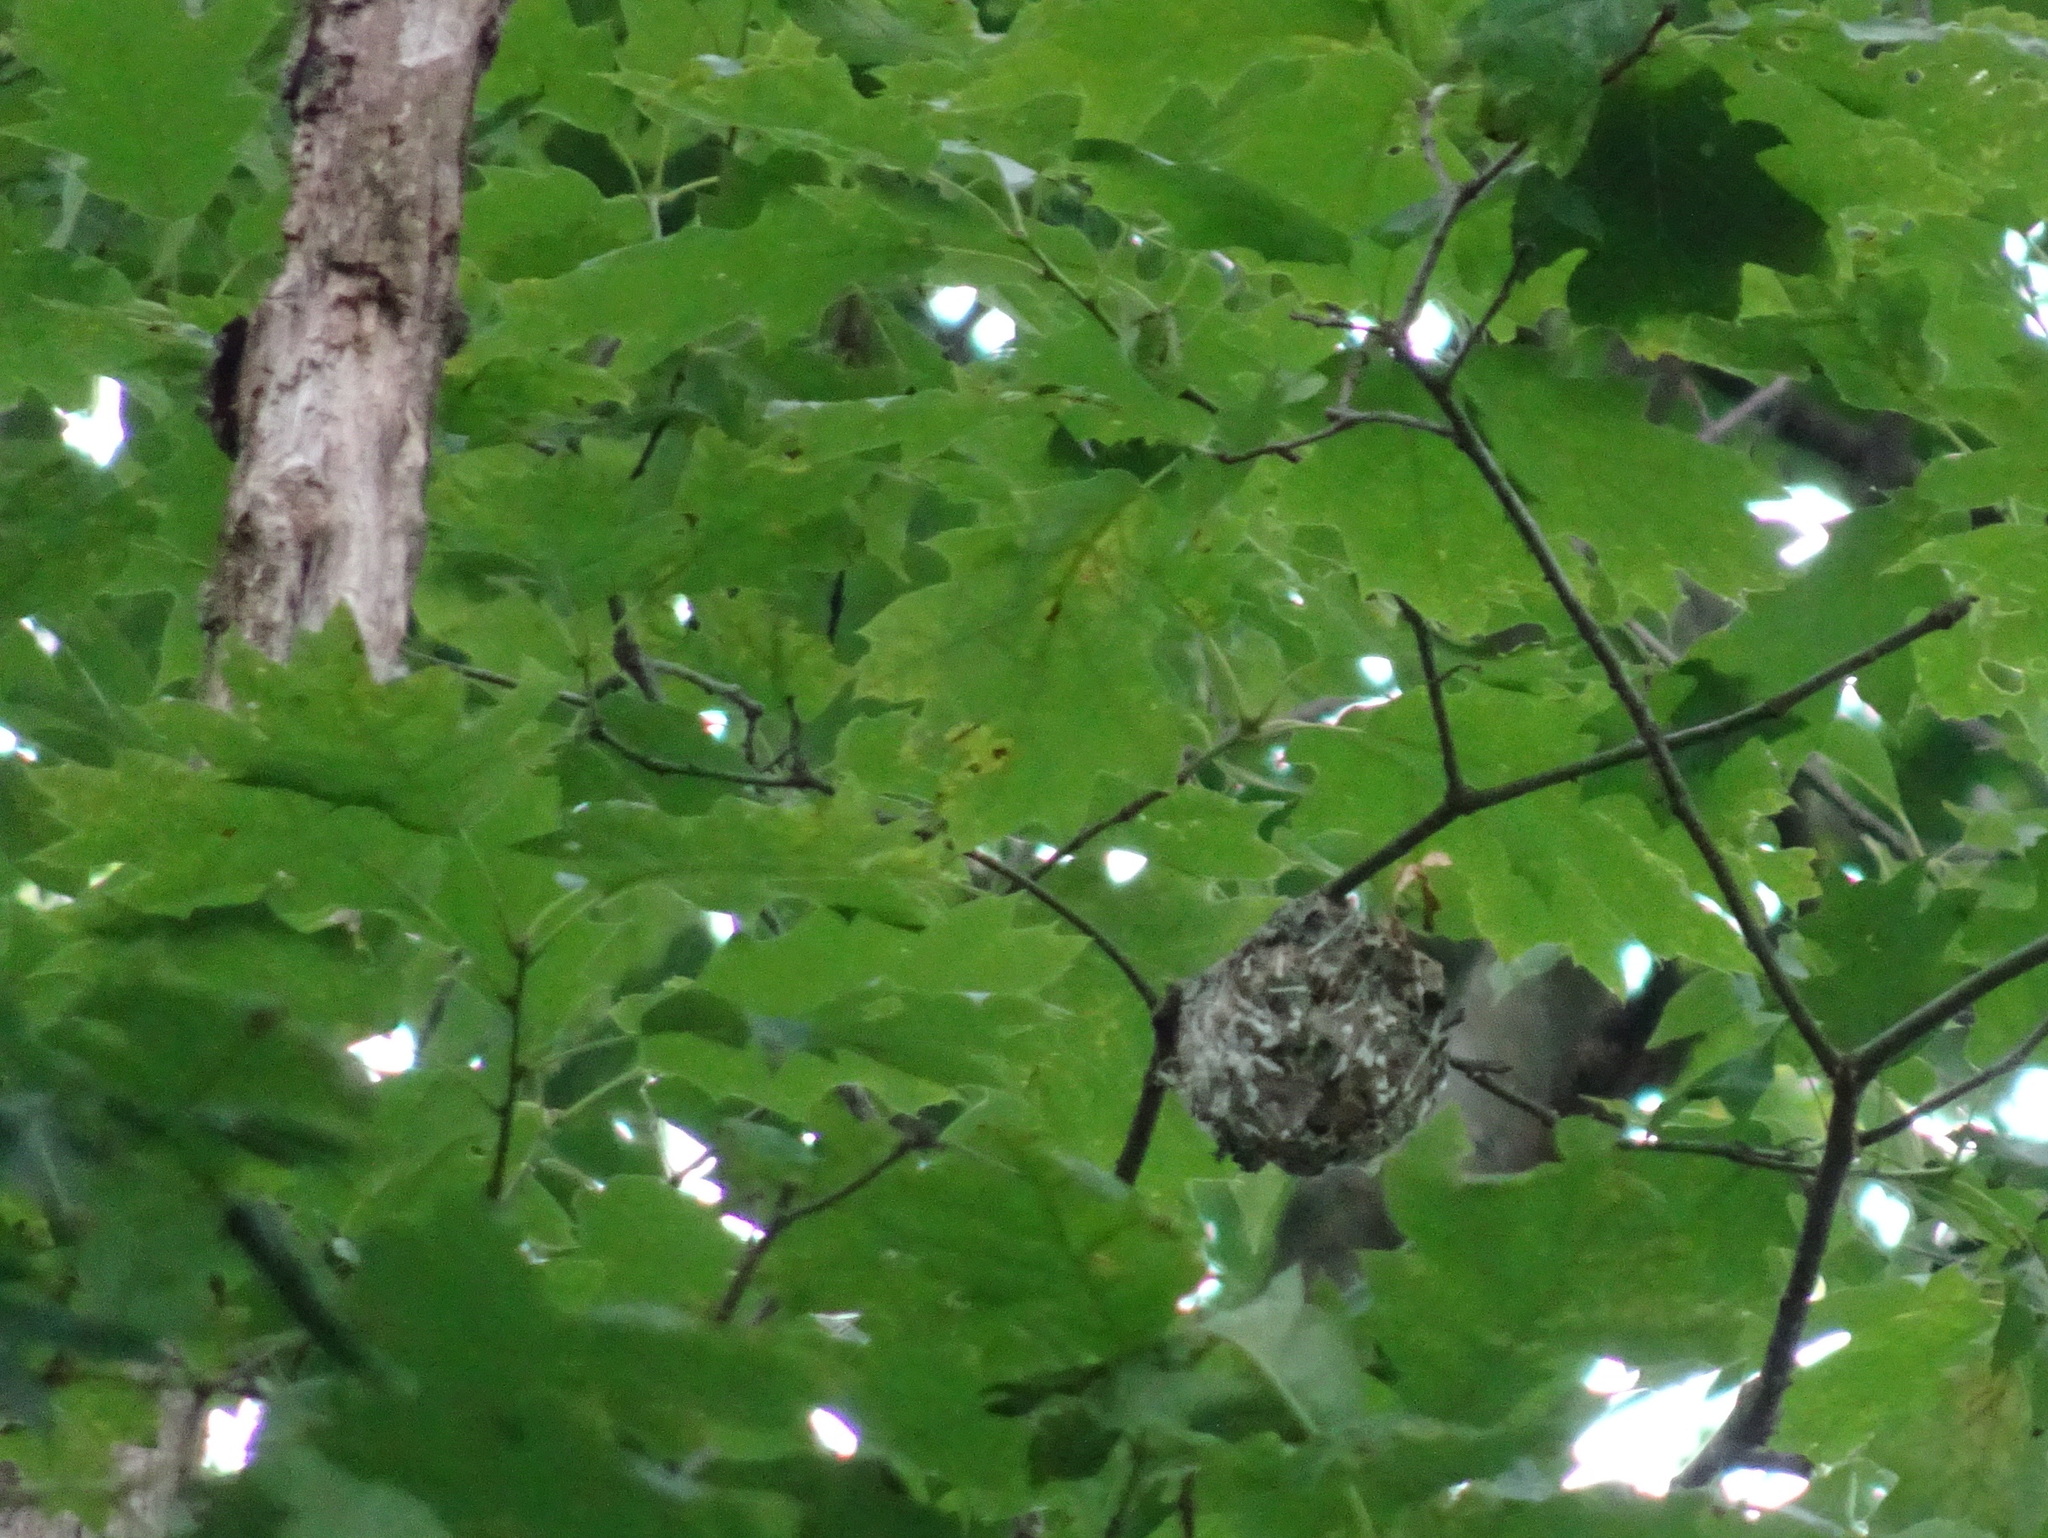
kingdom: Animalia
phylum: Chordata
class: Aves
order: Passeriformes
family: Vireonidae
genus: Vireo
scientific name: Vireo flavifrons
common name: Yellow-throated vireo
